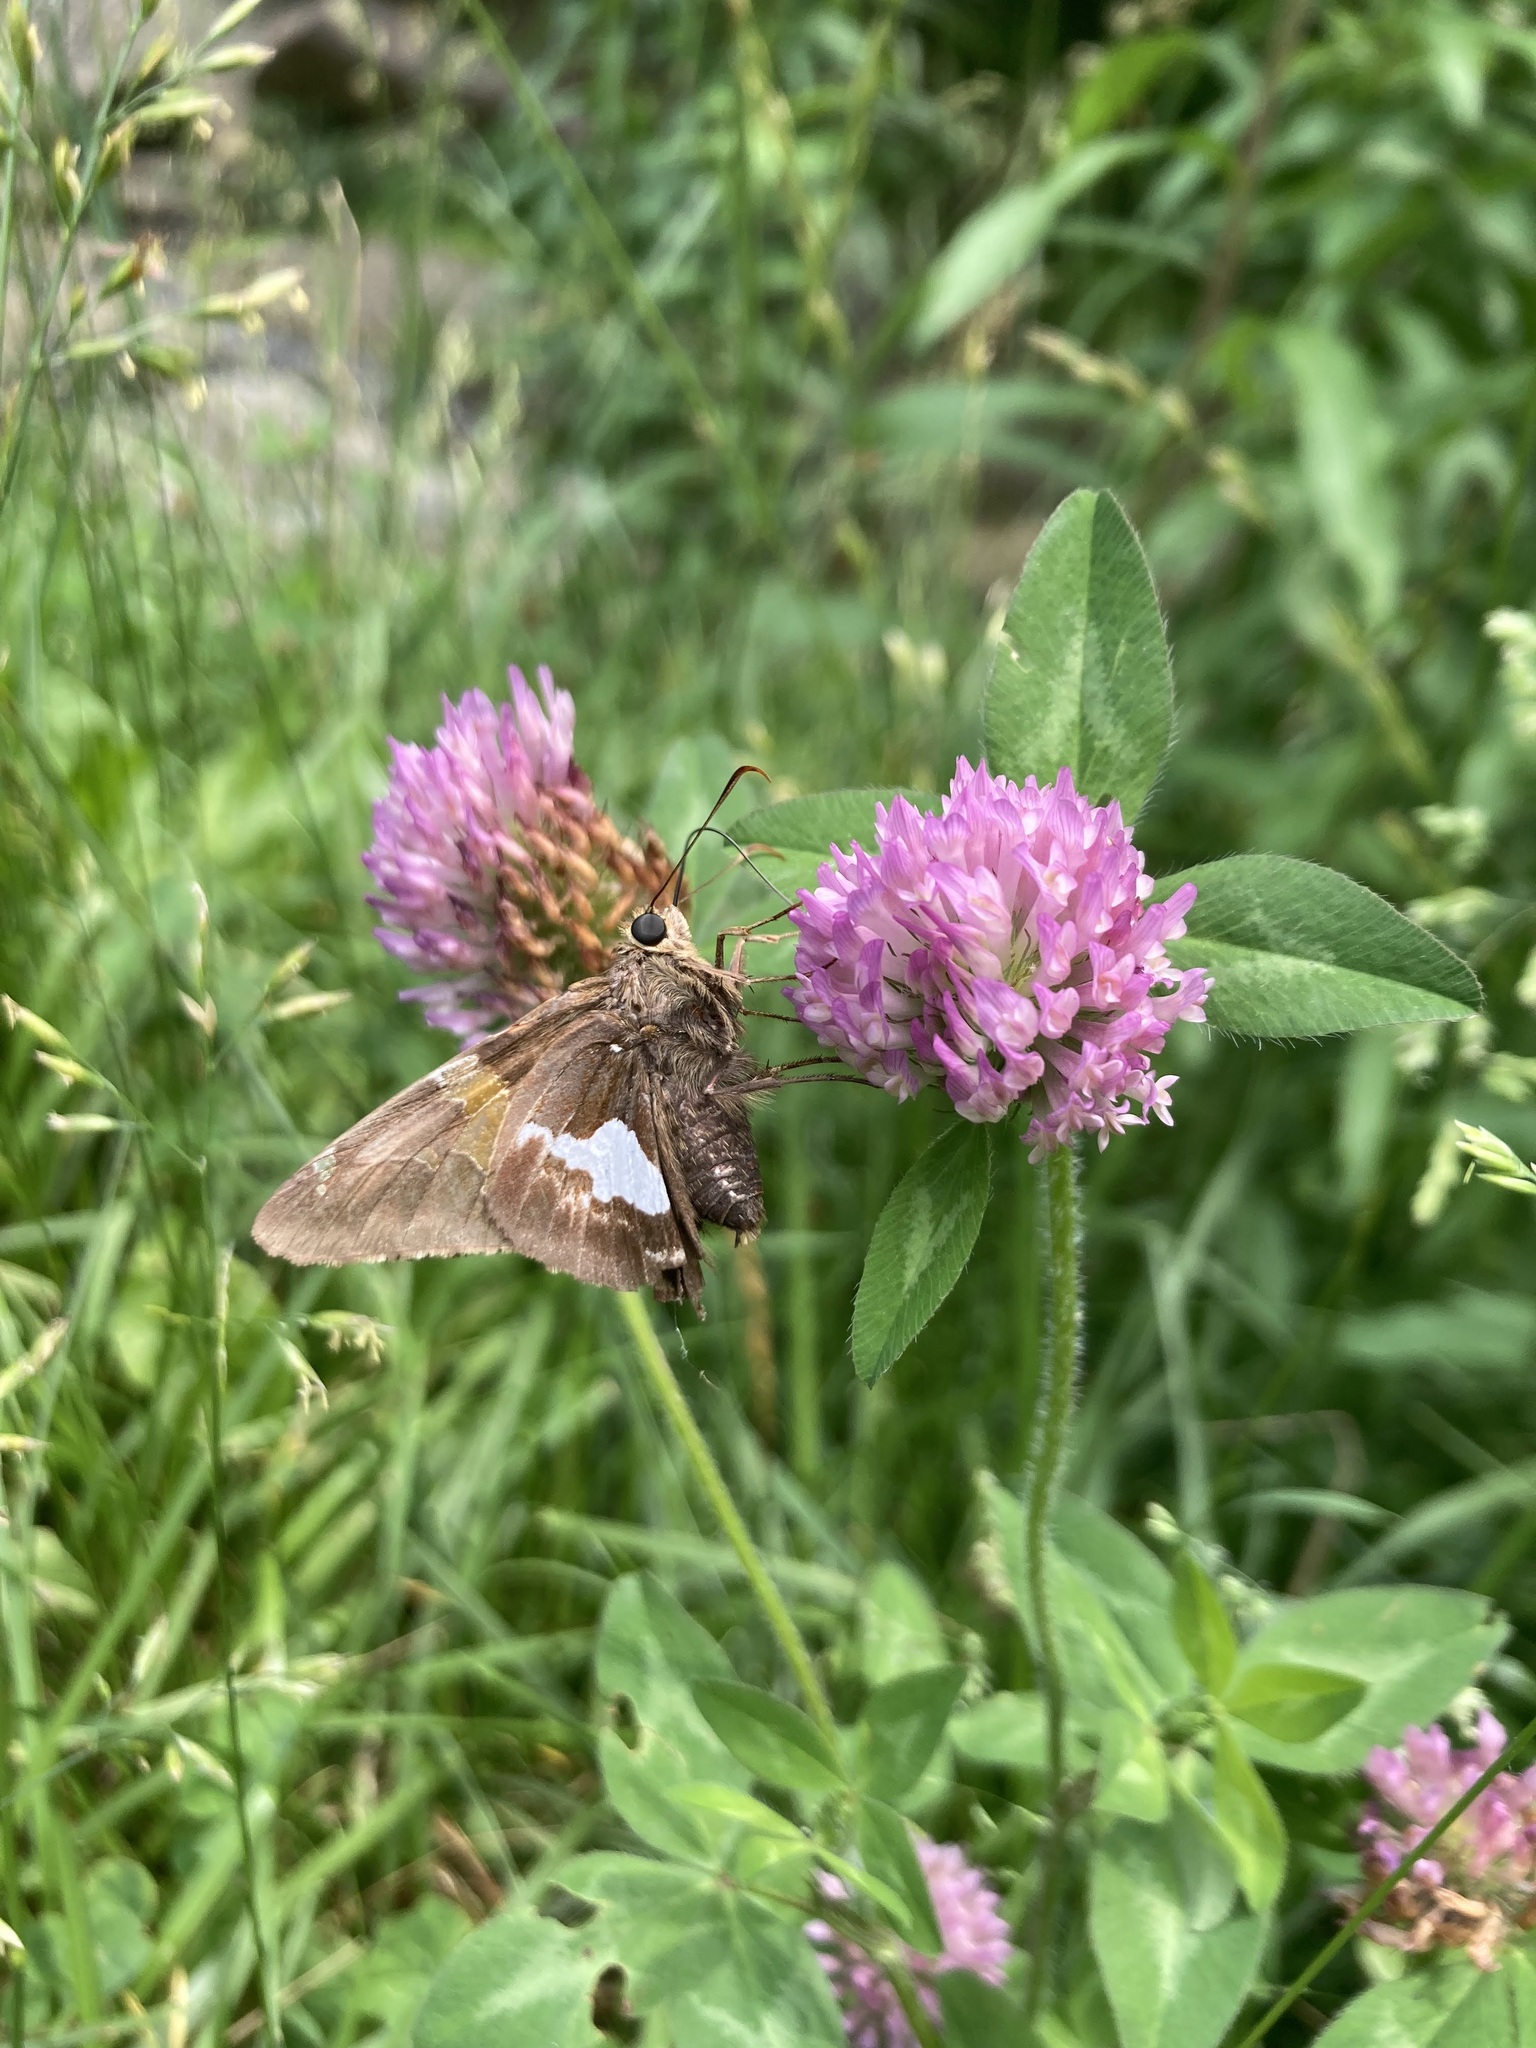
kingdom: Animalia
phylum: Arthropoda
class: Insecta
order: Lepidoptera
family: Hesperiidae
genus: Epargyreus
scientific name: Epargyreus clarus
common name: Silver-spotted skipper
